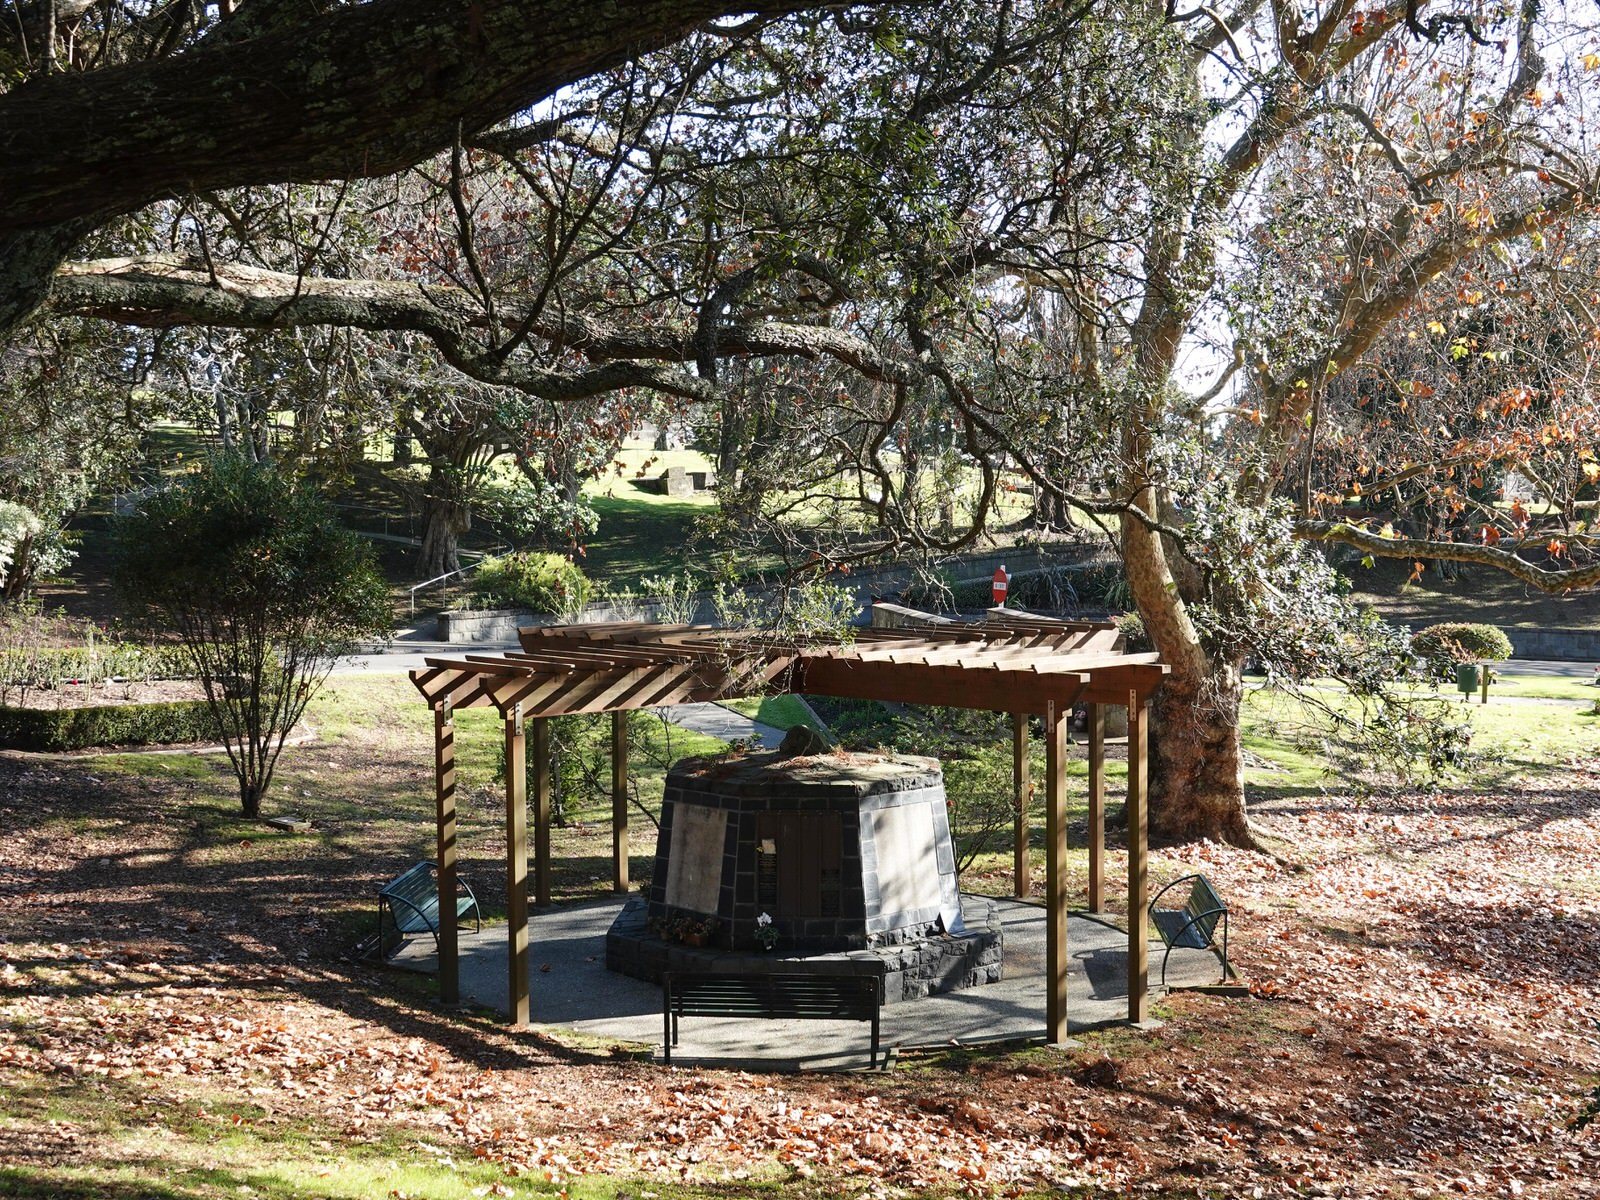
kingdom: Animalia
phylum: Chordata
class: Aves
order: Coraciiformes
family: Alcedinidae
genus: Todiramphus
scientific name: Todiramphus sanctus
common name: Sacred kingfisher
